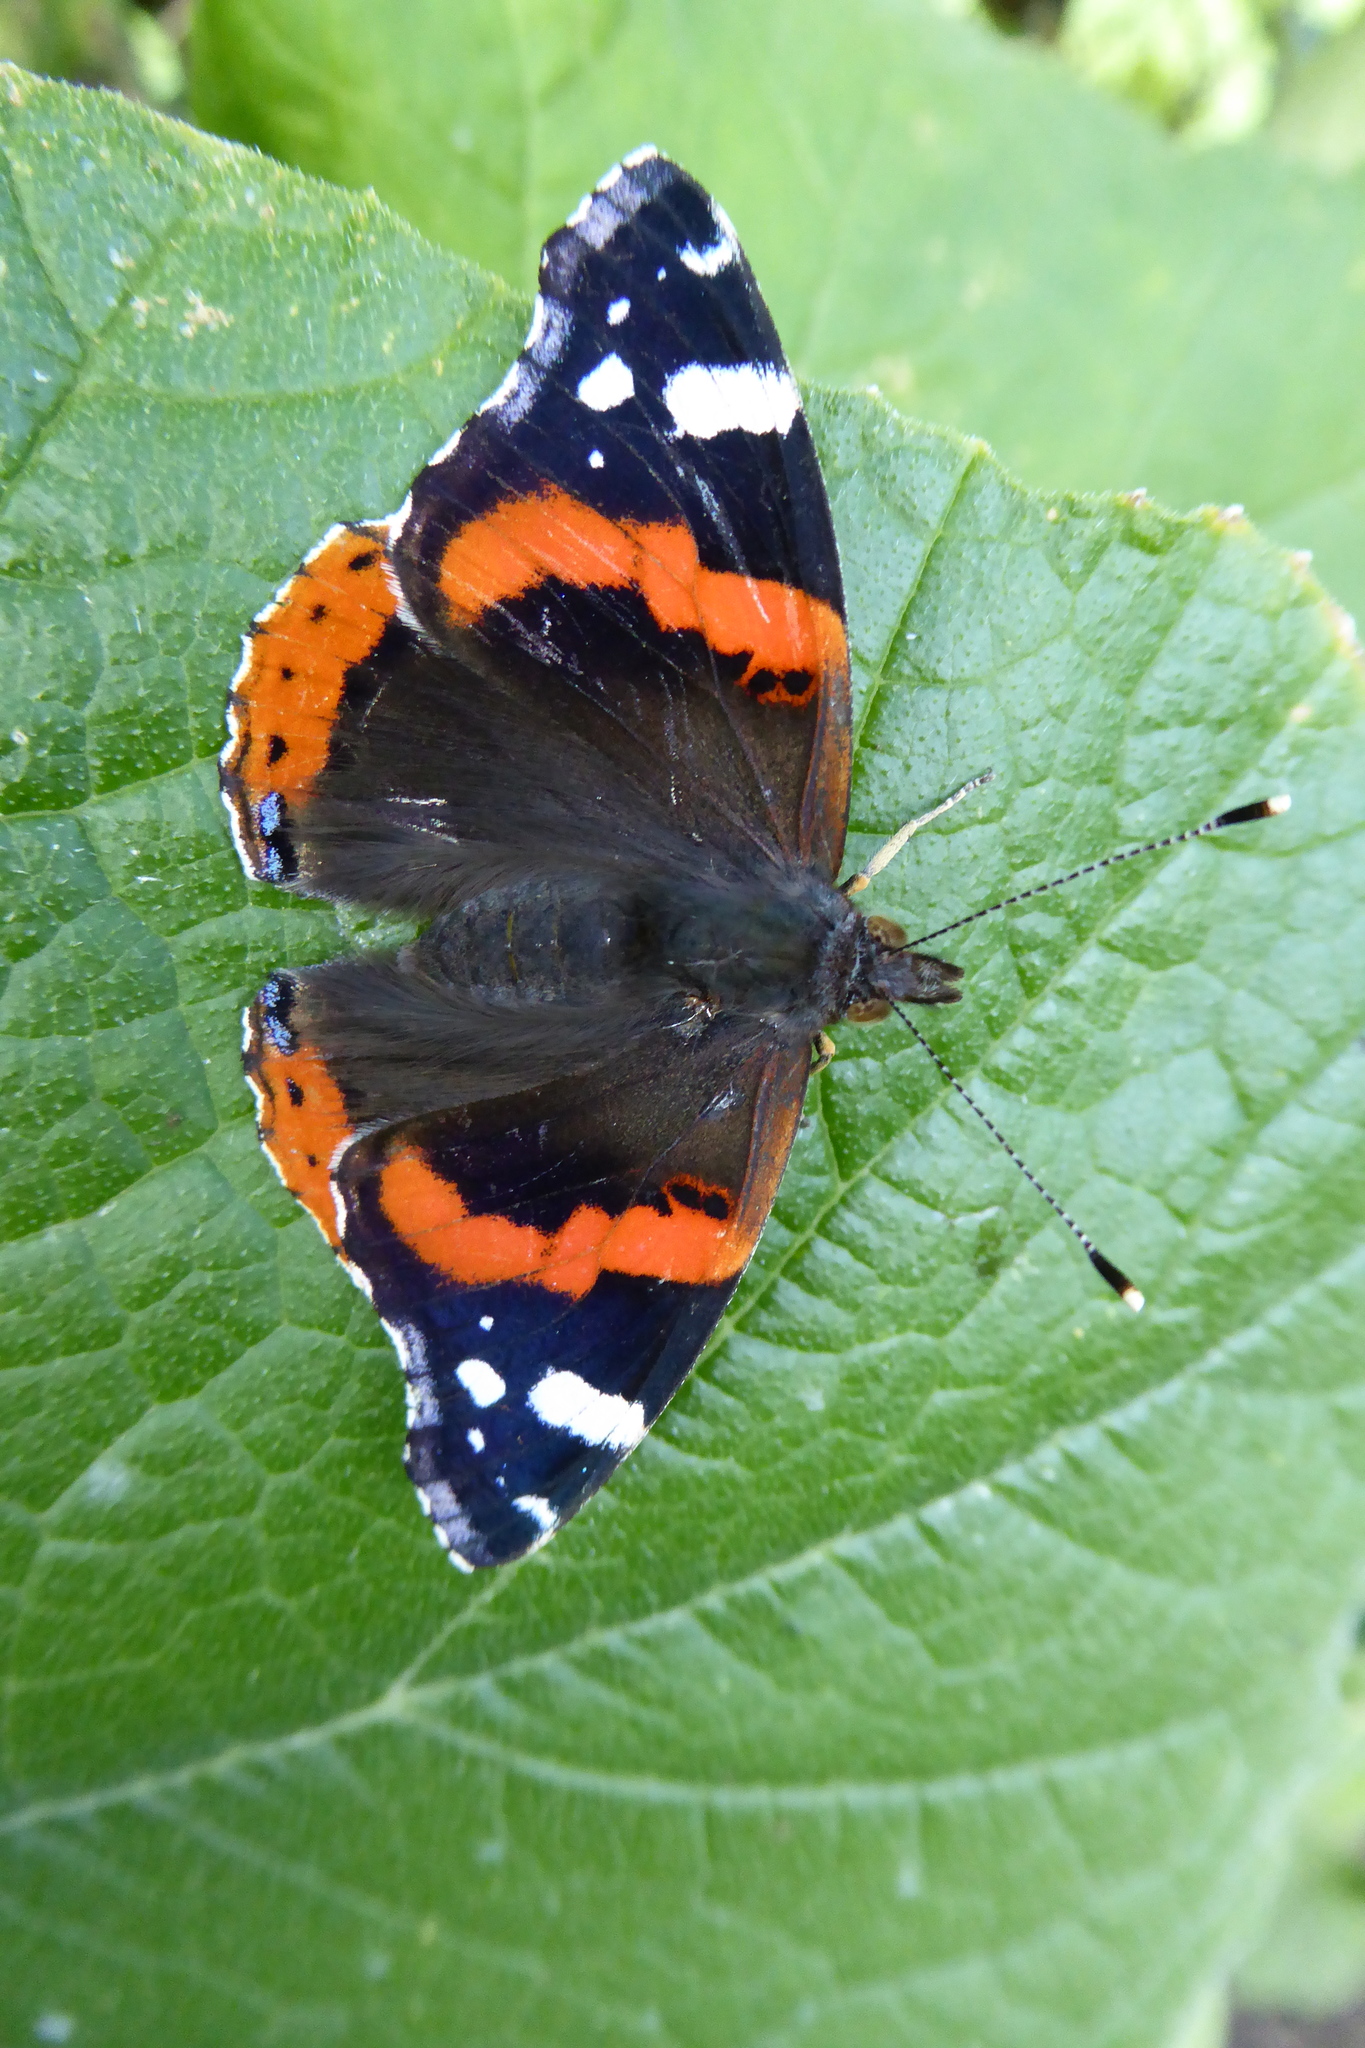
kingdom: Animalia
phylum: Arthropoda
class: Insecta
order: Lepidoptera
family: Nymphalidae
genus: Vanessa
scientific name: Vanessa atalanta
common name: Red admiral
